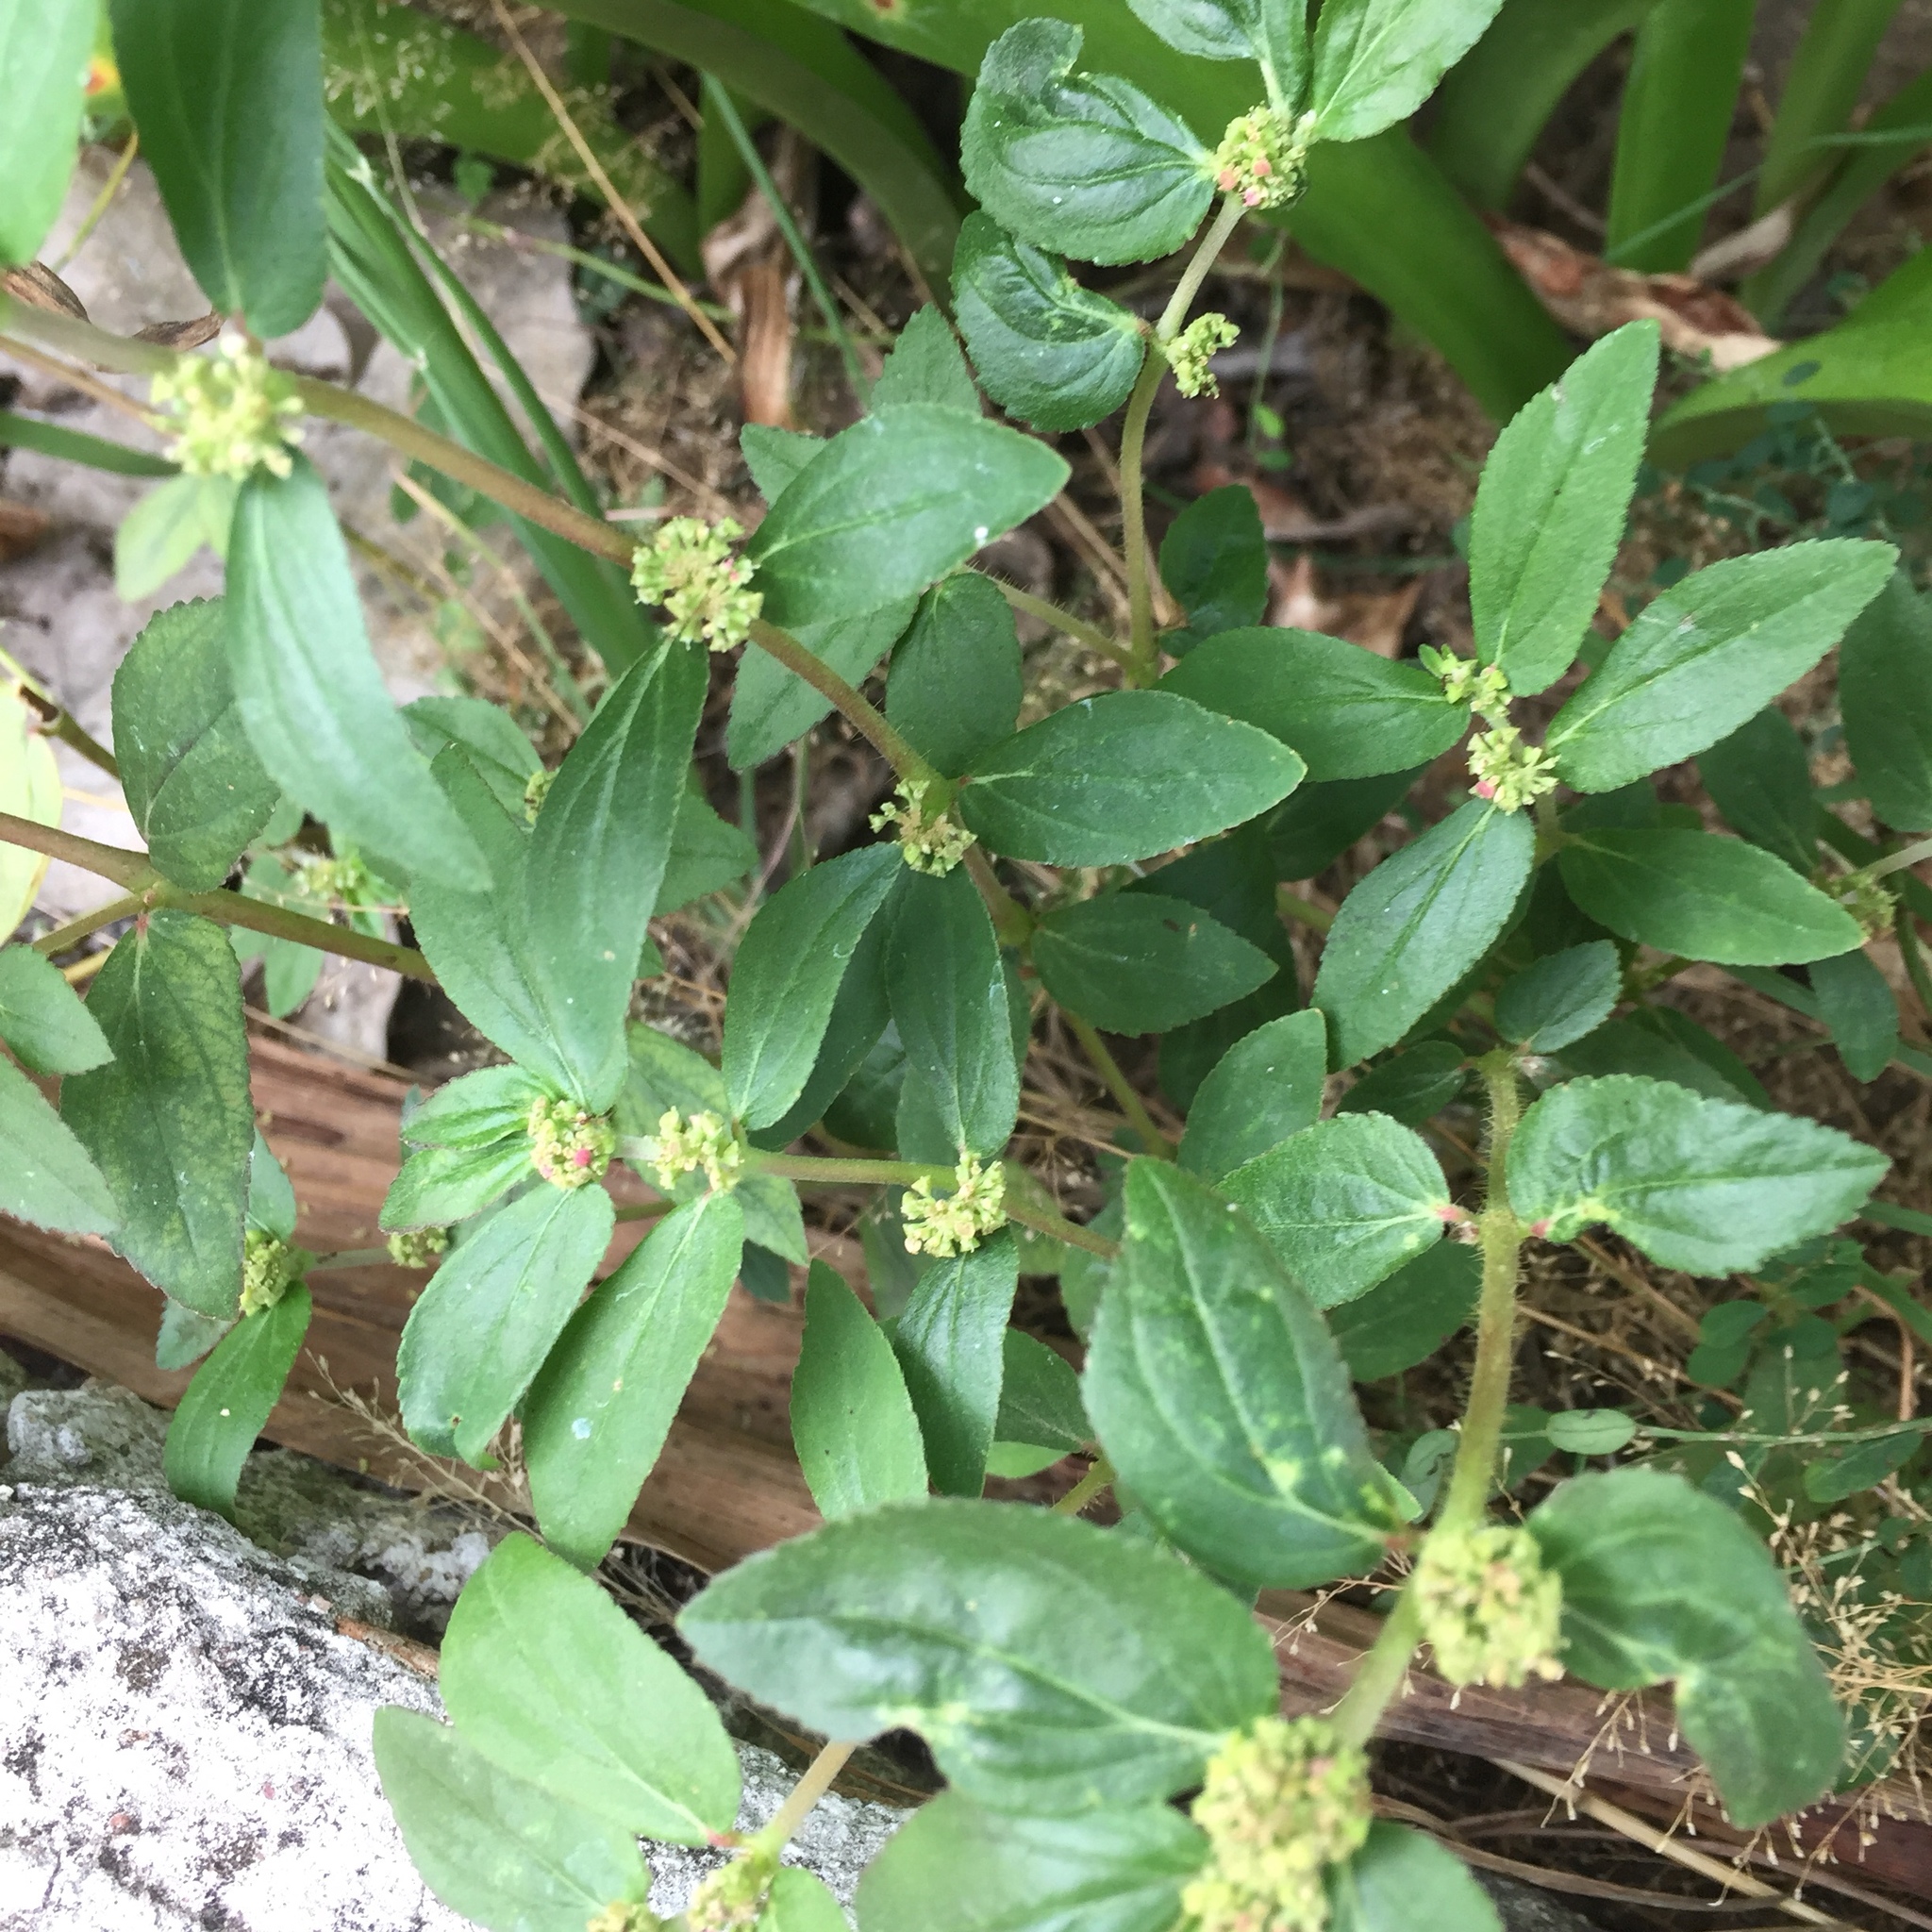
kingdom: Plantae
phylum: Tracheophyta
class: Magnoliopsida
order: Malpighiales
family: Euphorbiaceae
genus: Euphorbia
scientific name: Euphorbia hirta
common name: Pillpod sandmat
